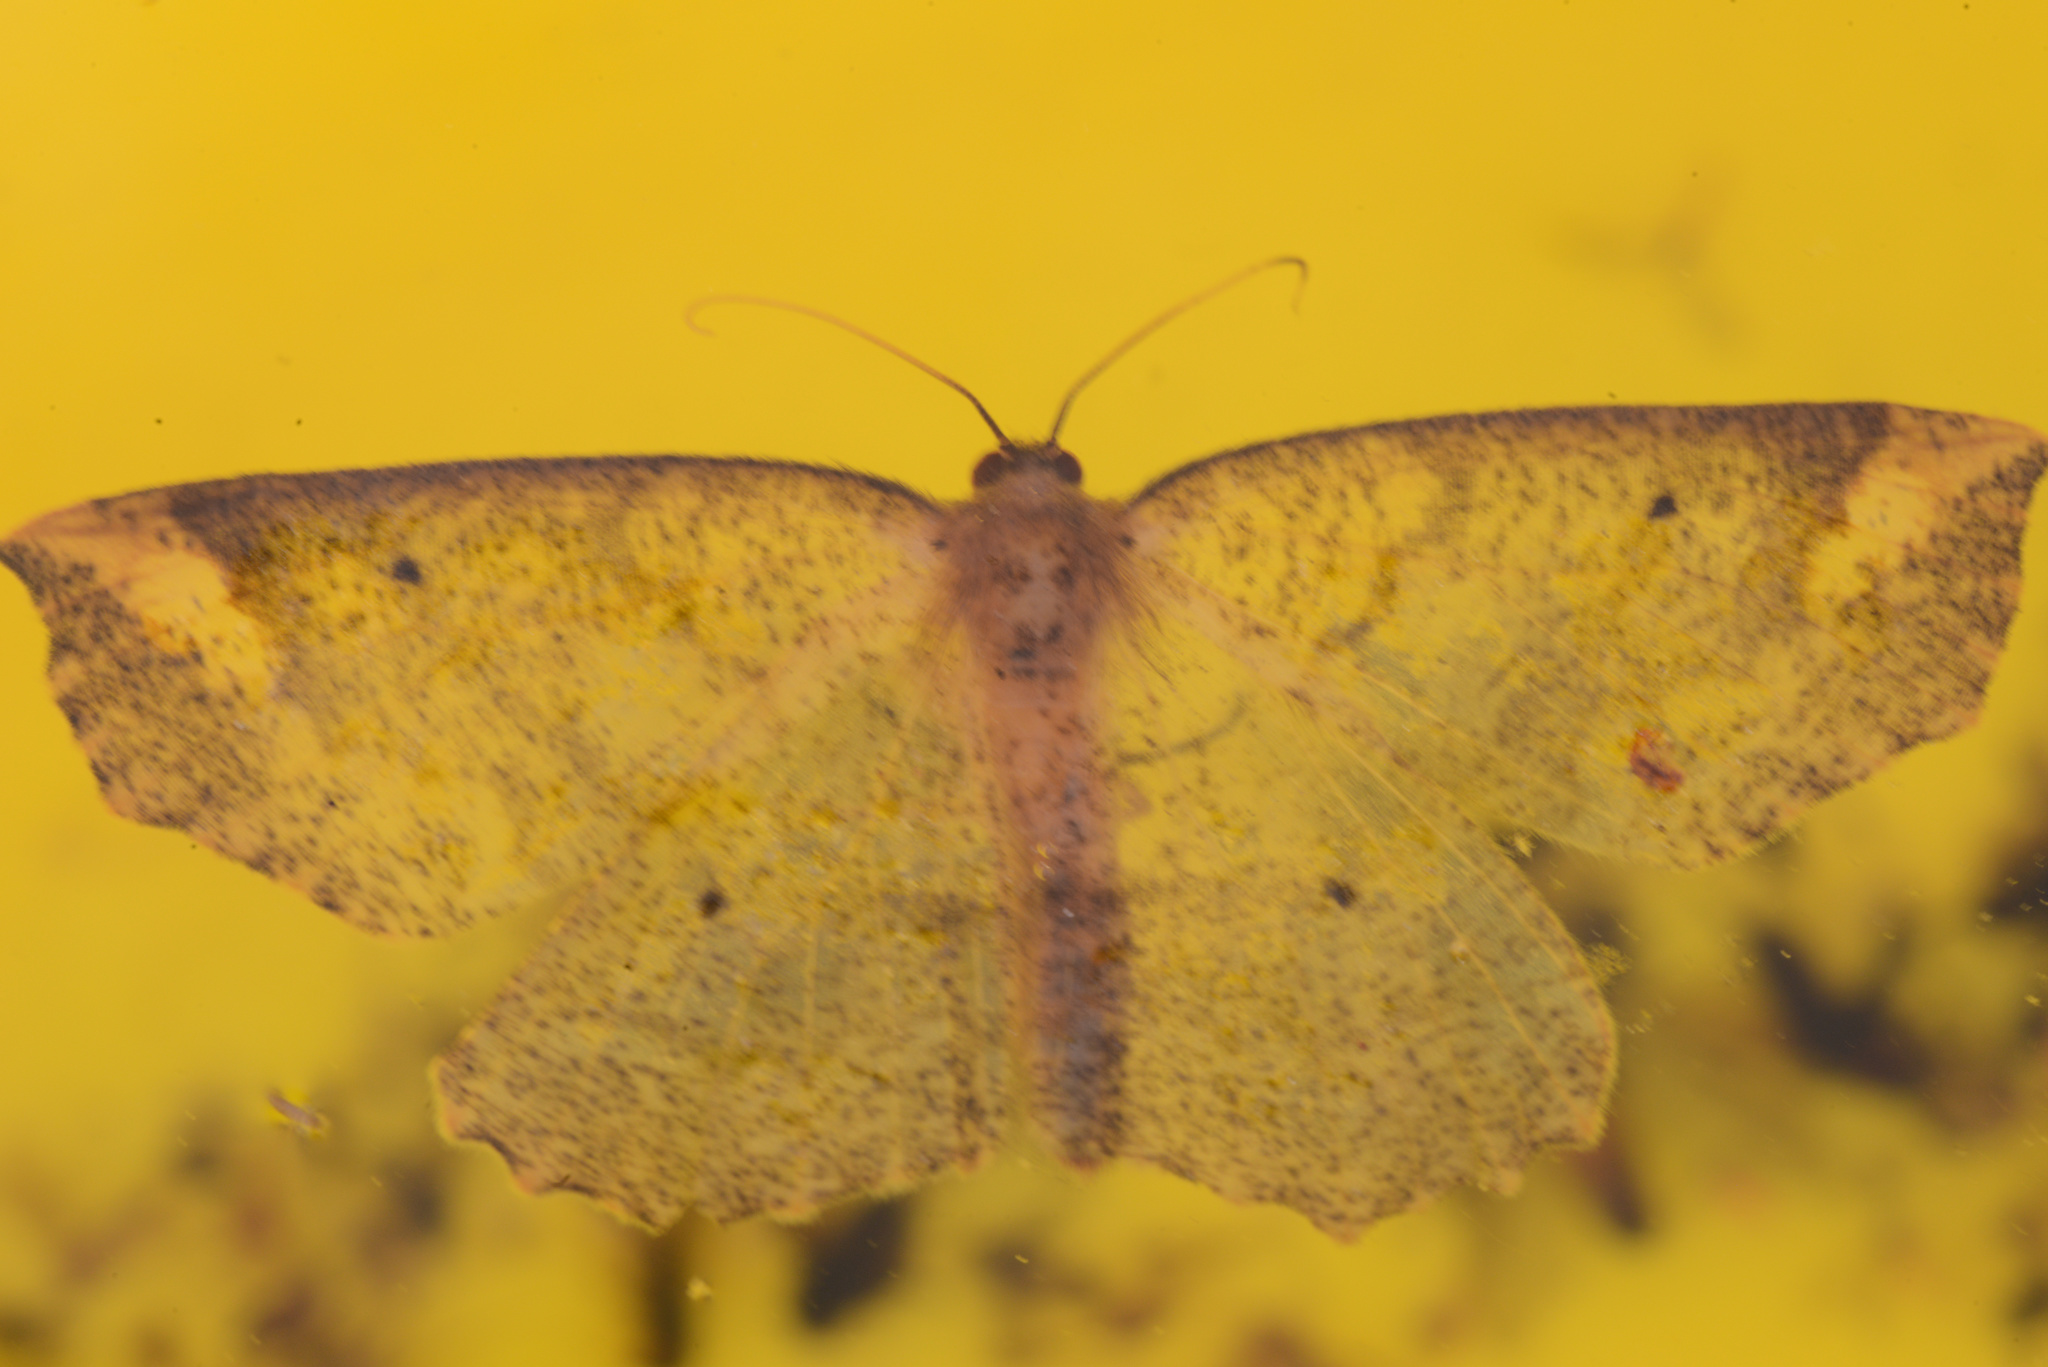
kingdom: Animalia
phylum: Arthropoda
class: Insecta
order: Lepidoptera
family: Geometridae
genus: Xyridacma
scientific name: Xyridacma ustaria
